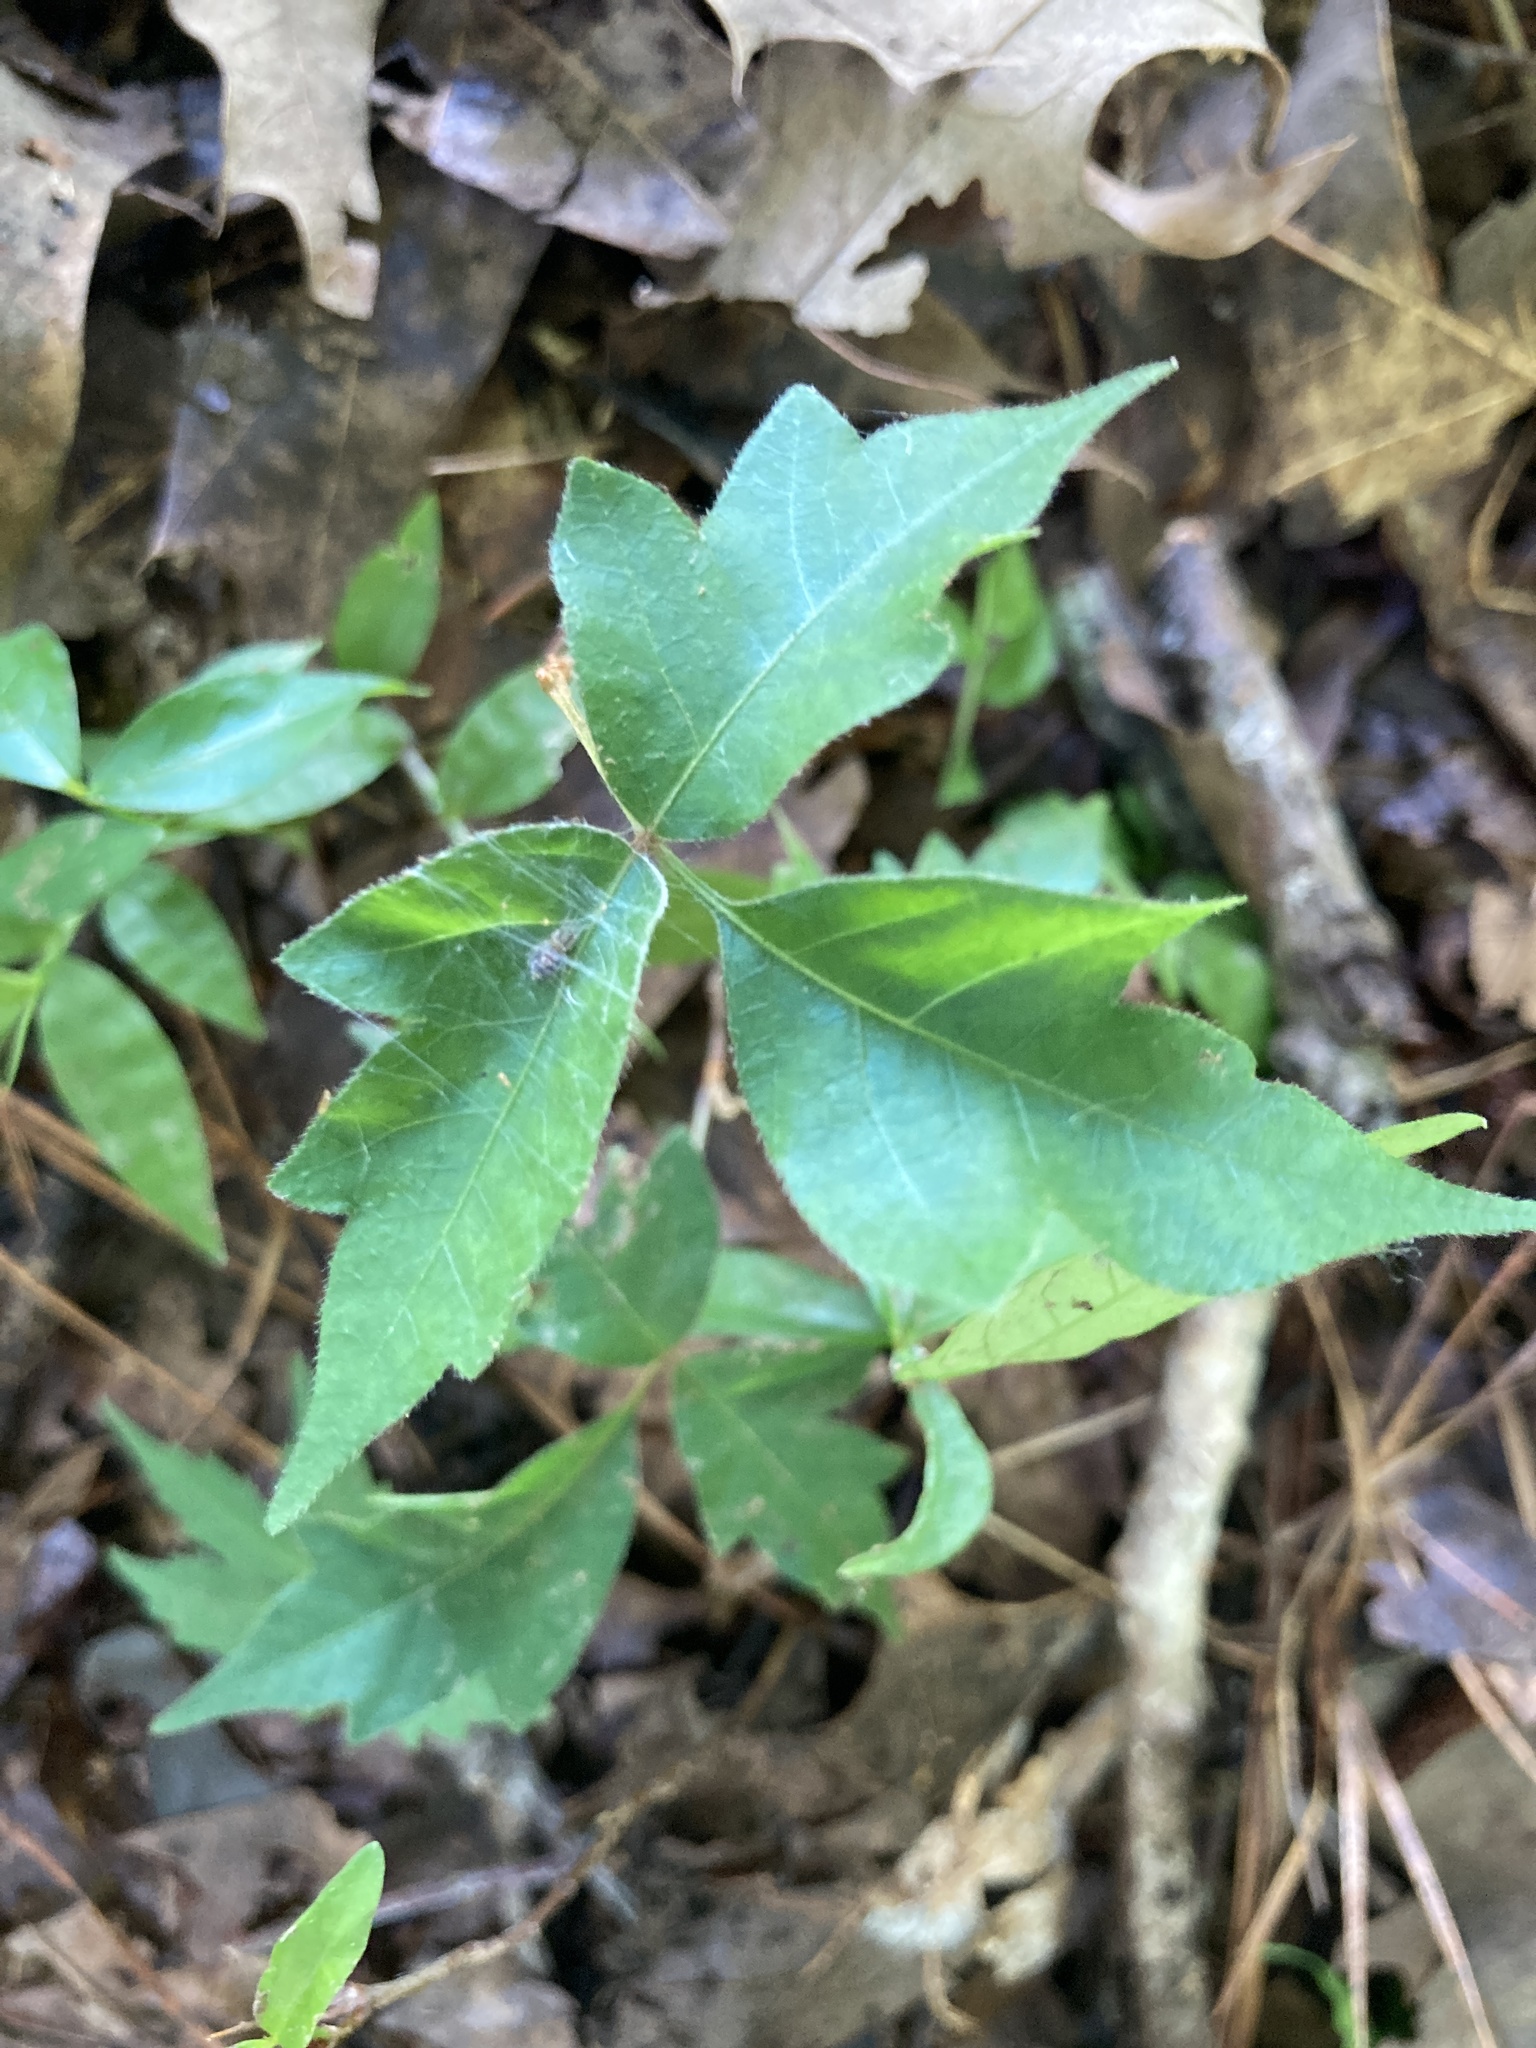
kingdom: Plantae
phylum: Tracheophyta
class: Magnoliopsida
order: Sapindales
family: Anacardiaceae
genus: Toxicodendron
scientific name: Toxicodendron radicans
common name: Poison ivy
